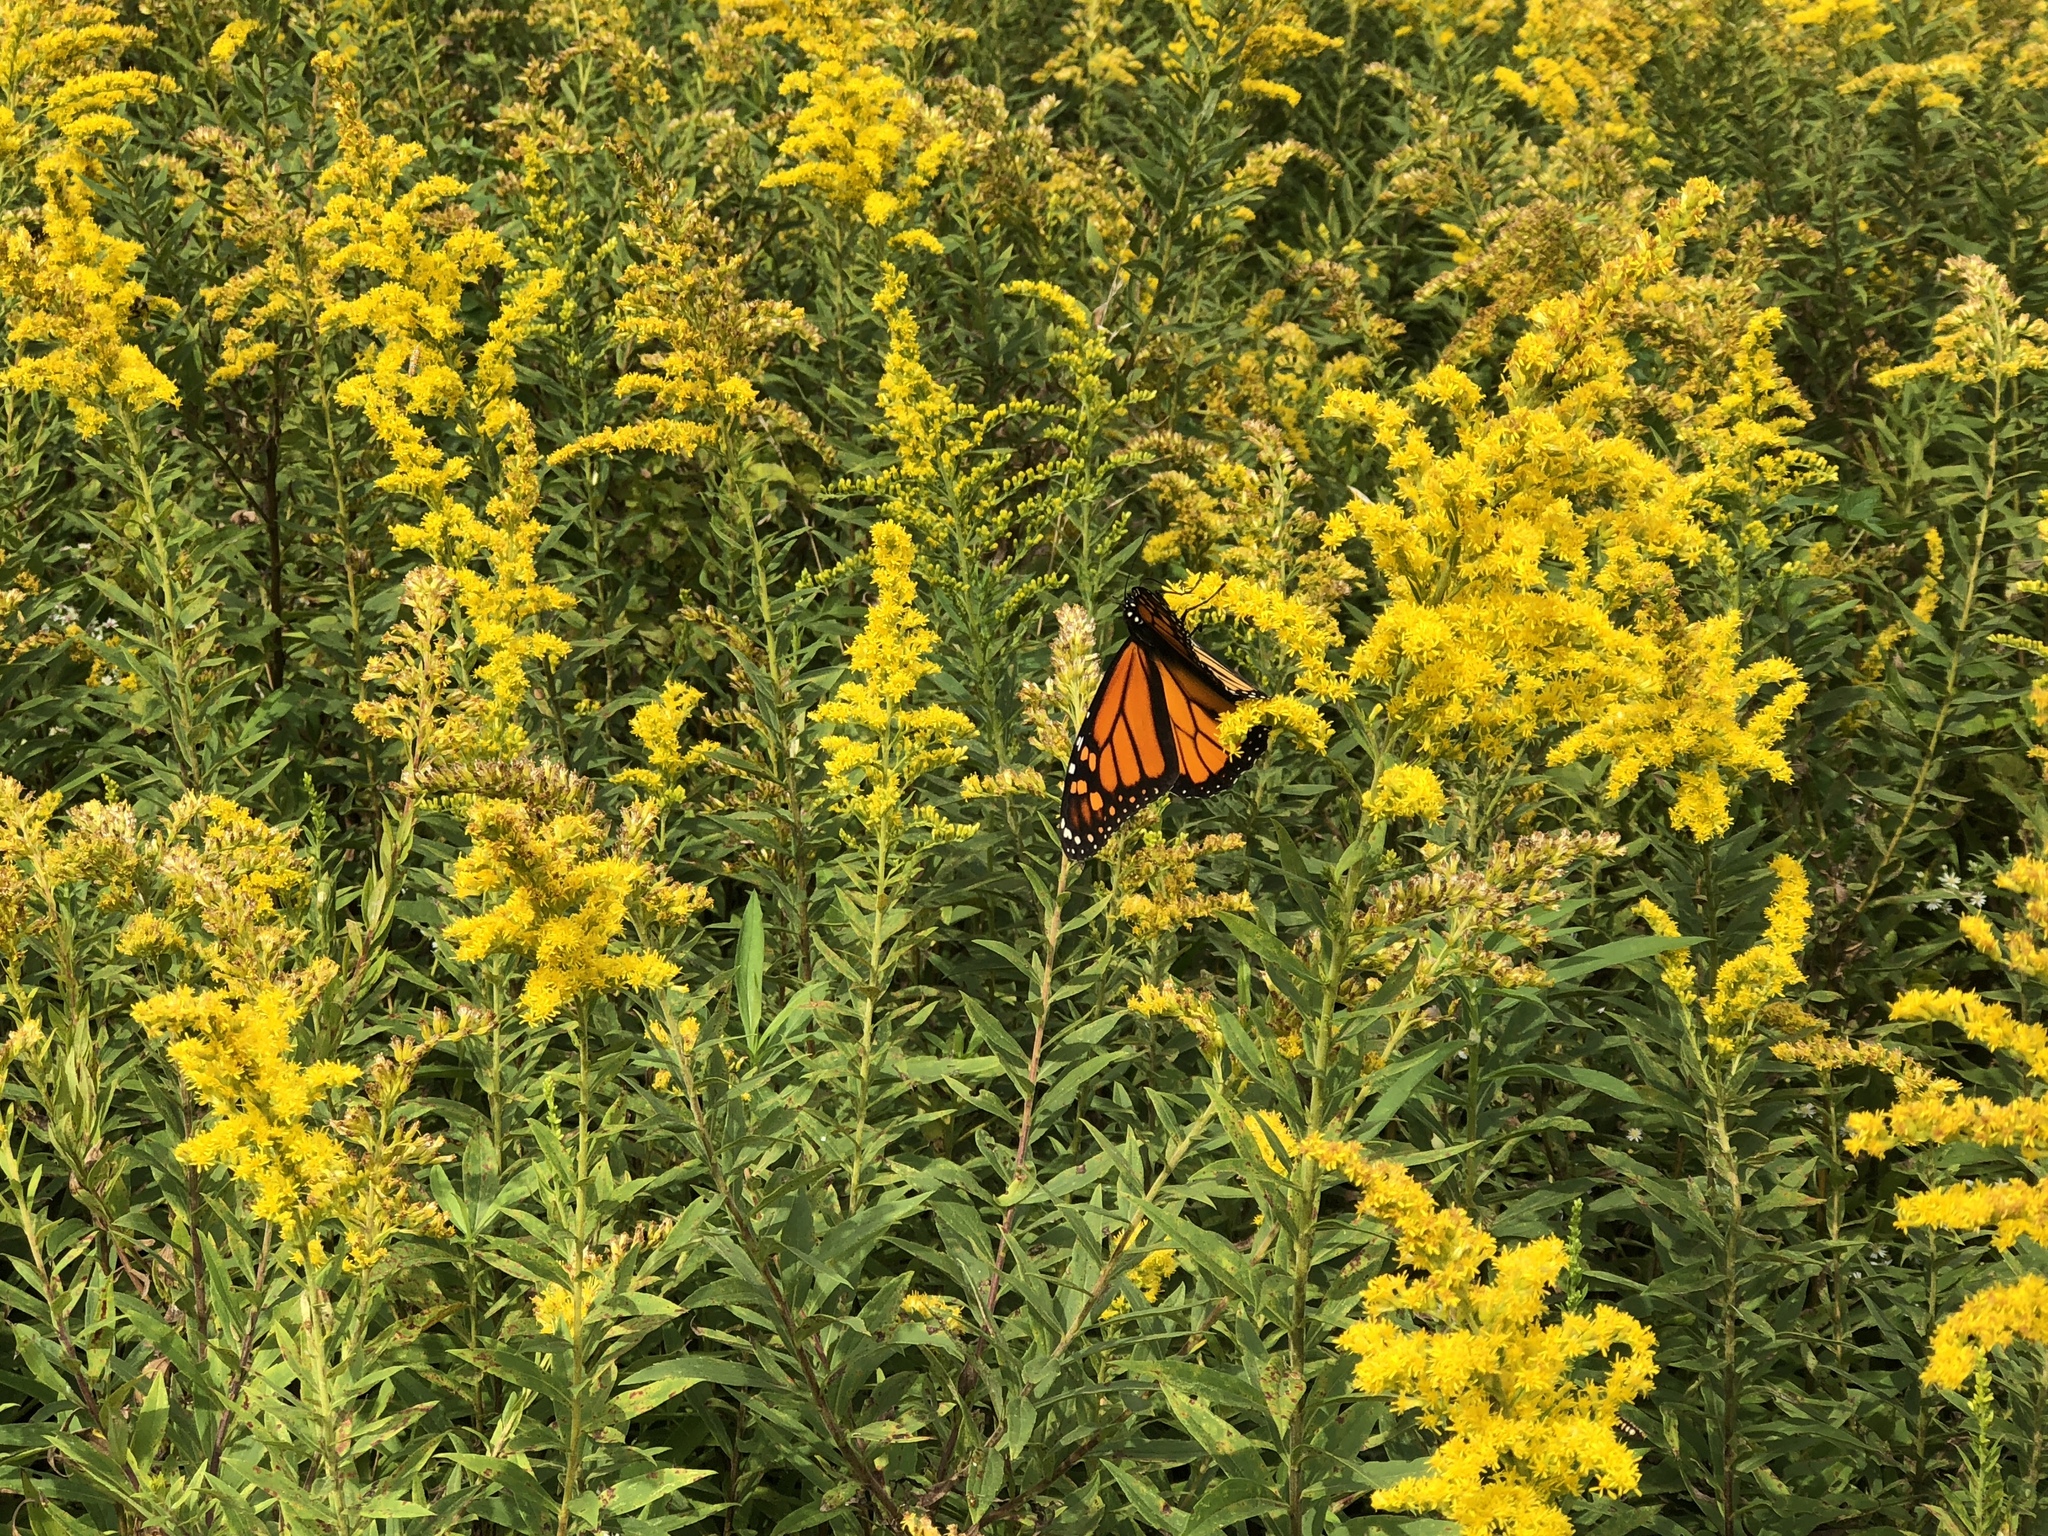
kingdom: Animalia
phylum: Arthropoda
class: Insecta
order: Lepidoptera
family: Nymphalidae
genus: Danaus
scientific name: Danaus plexippus
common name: Monarch
